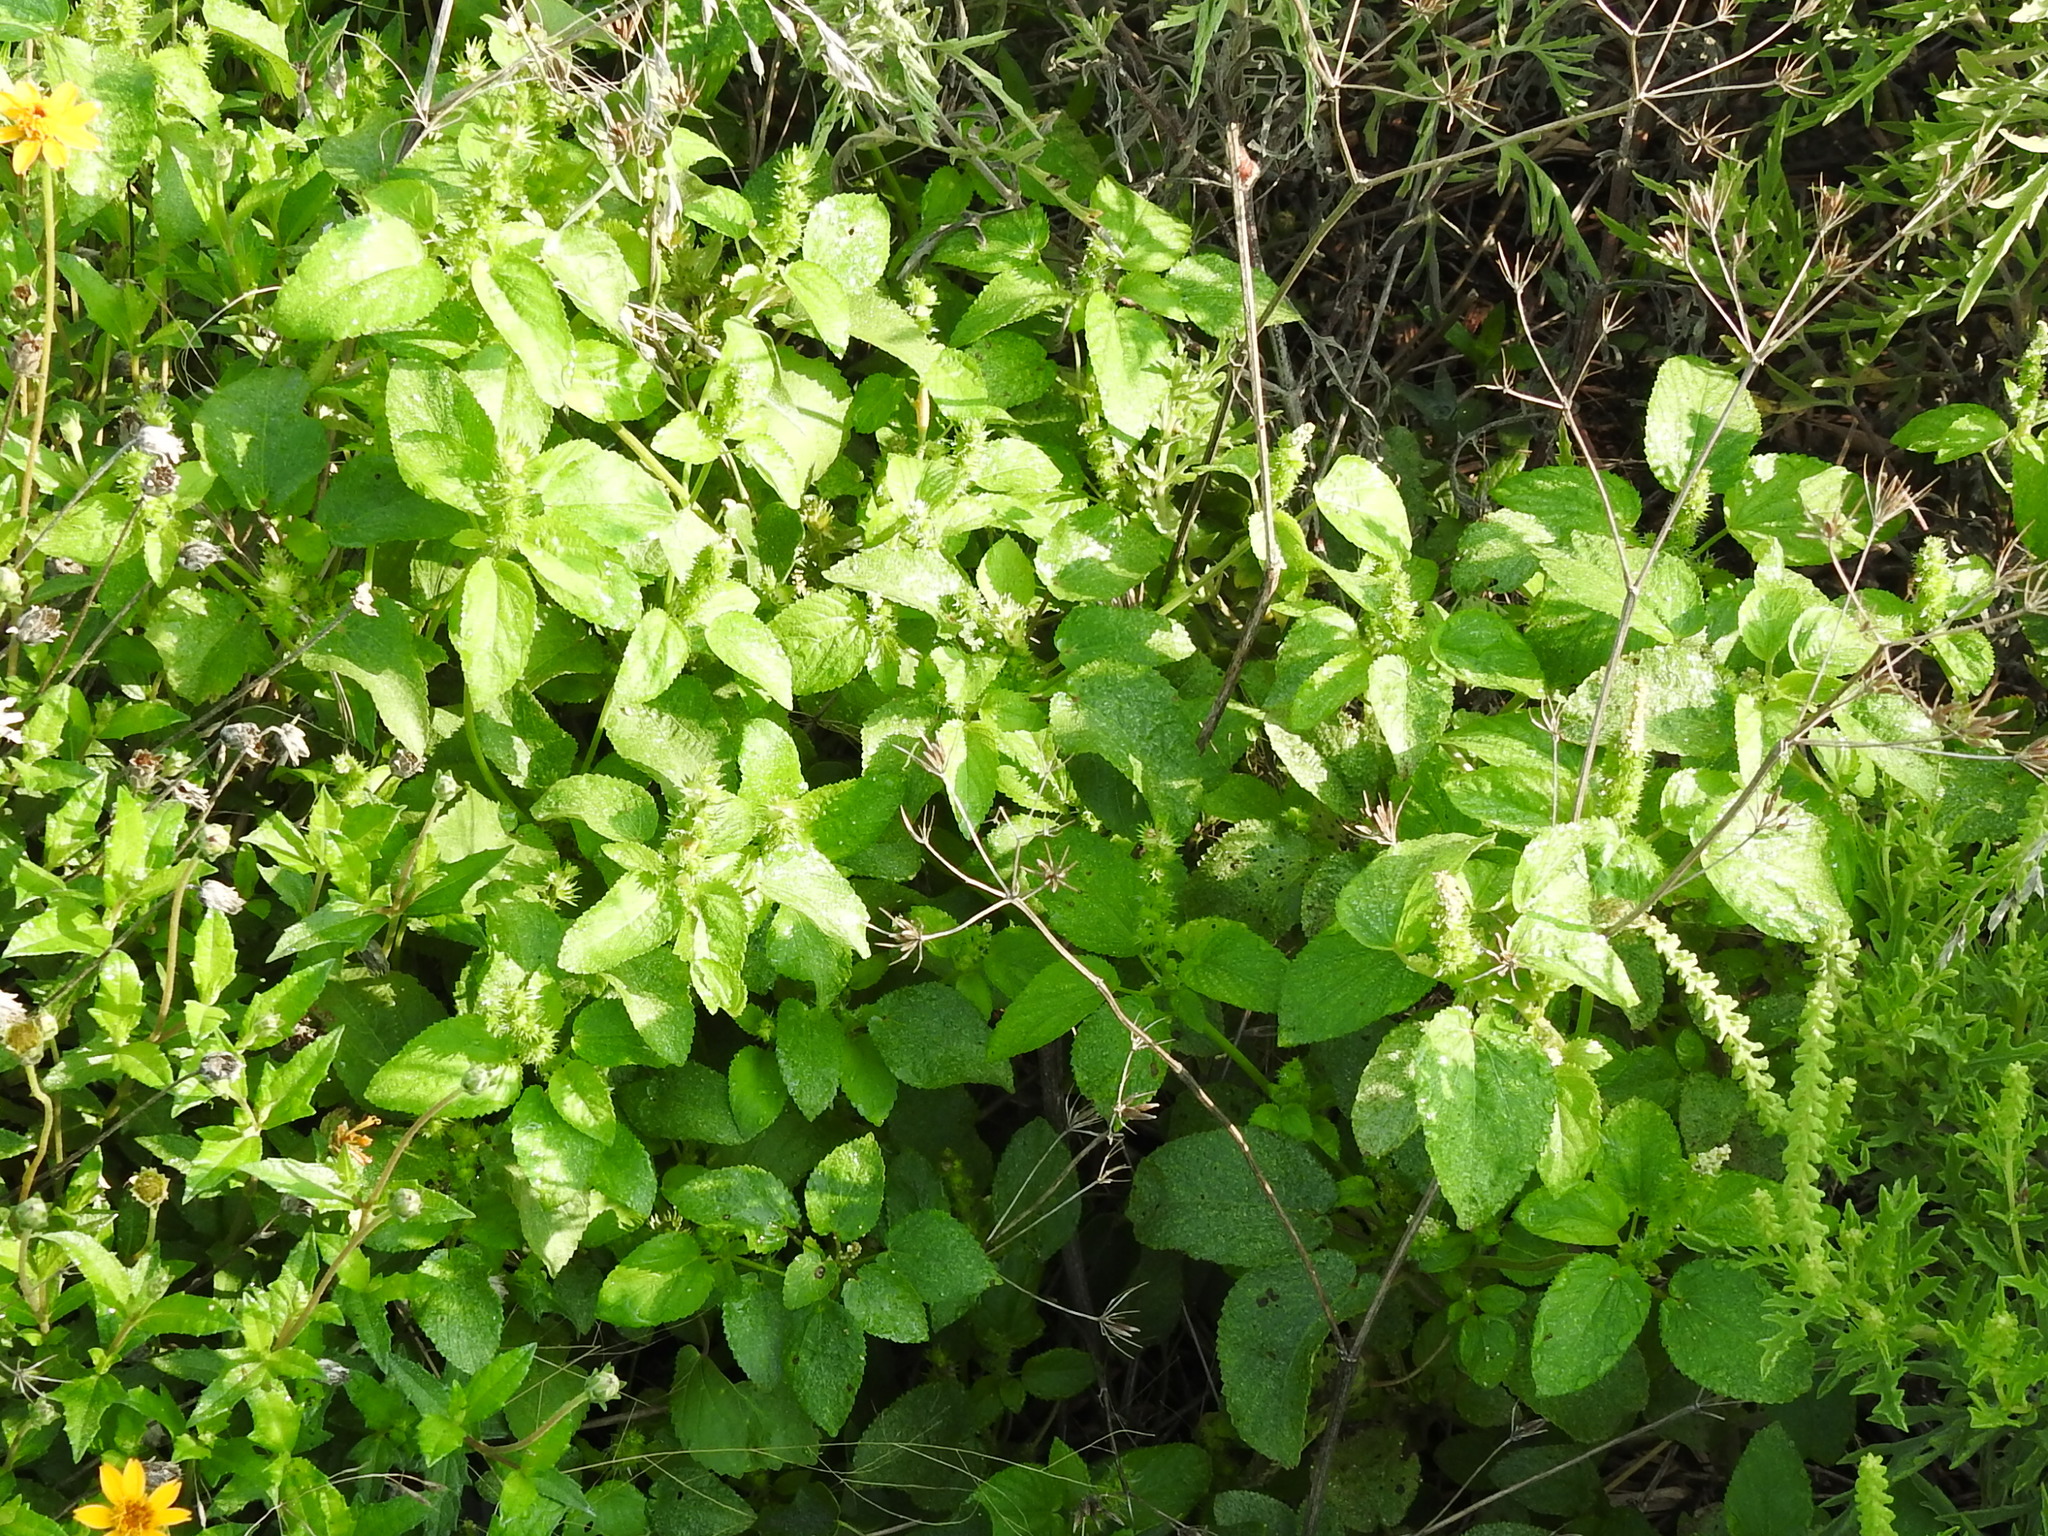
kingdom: Plantae
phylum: Tracheophyta
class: Magnoliopsida
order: Malpighiales
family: Euphorbiaceae
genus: Acalypha
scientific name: Acalypha ostryifolia
